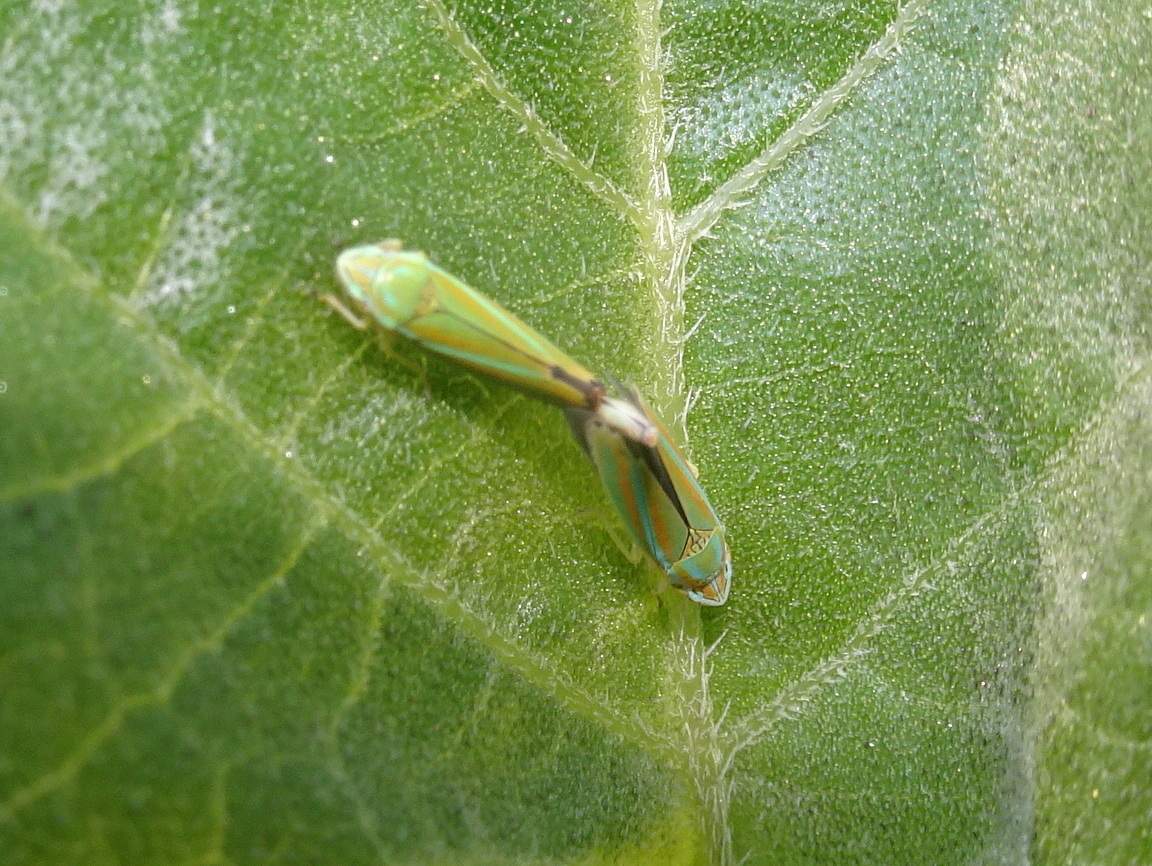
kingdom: Animalia
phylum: Arthropoda
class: Insecta
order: Hemiptera
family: Cicadellidae
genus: Graphocephala
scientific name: Graphocephala versuta
